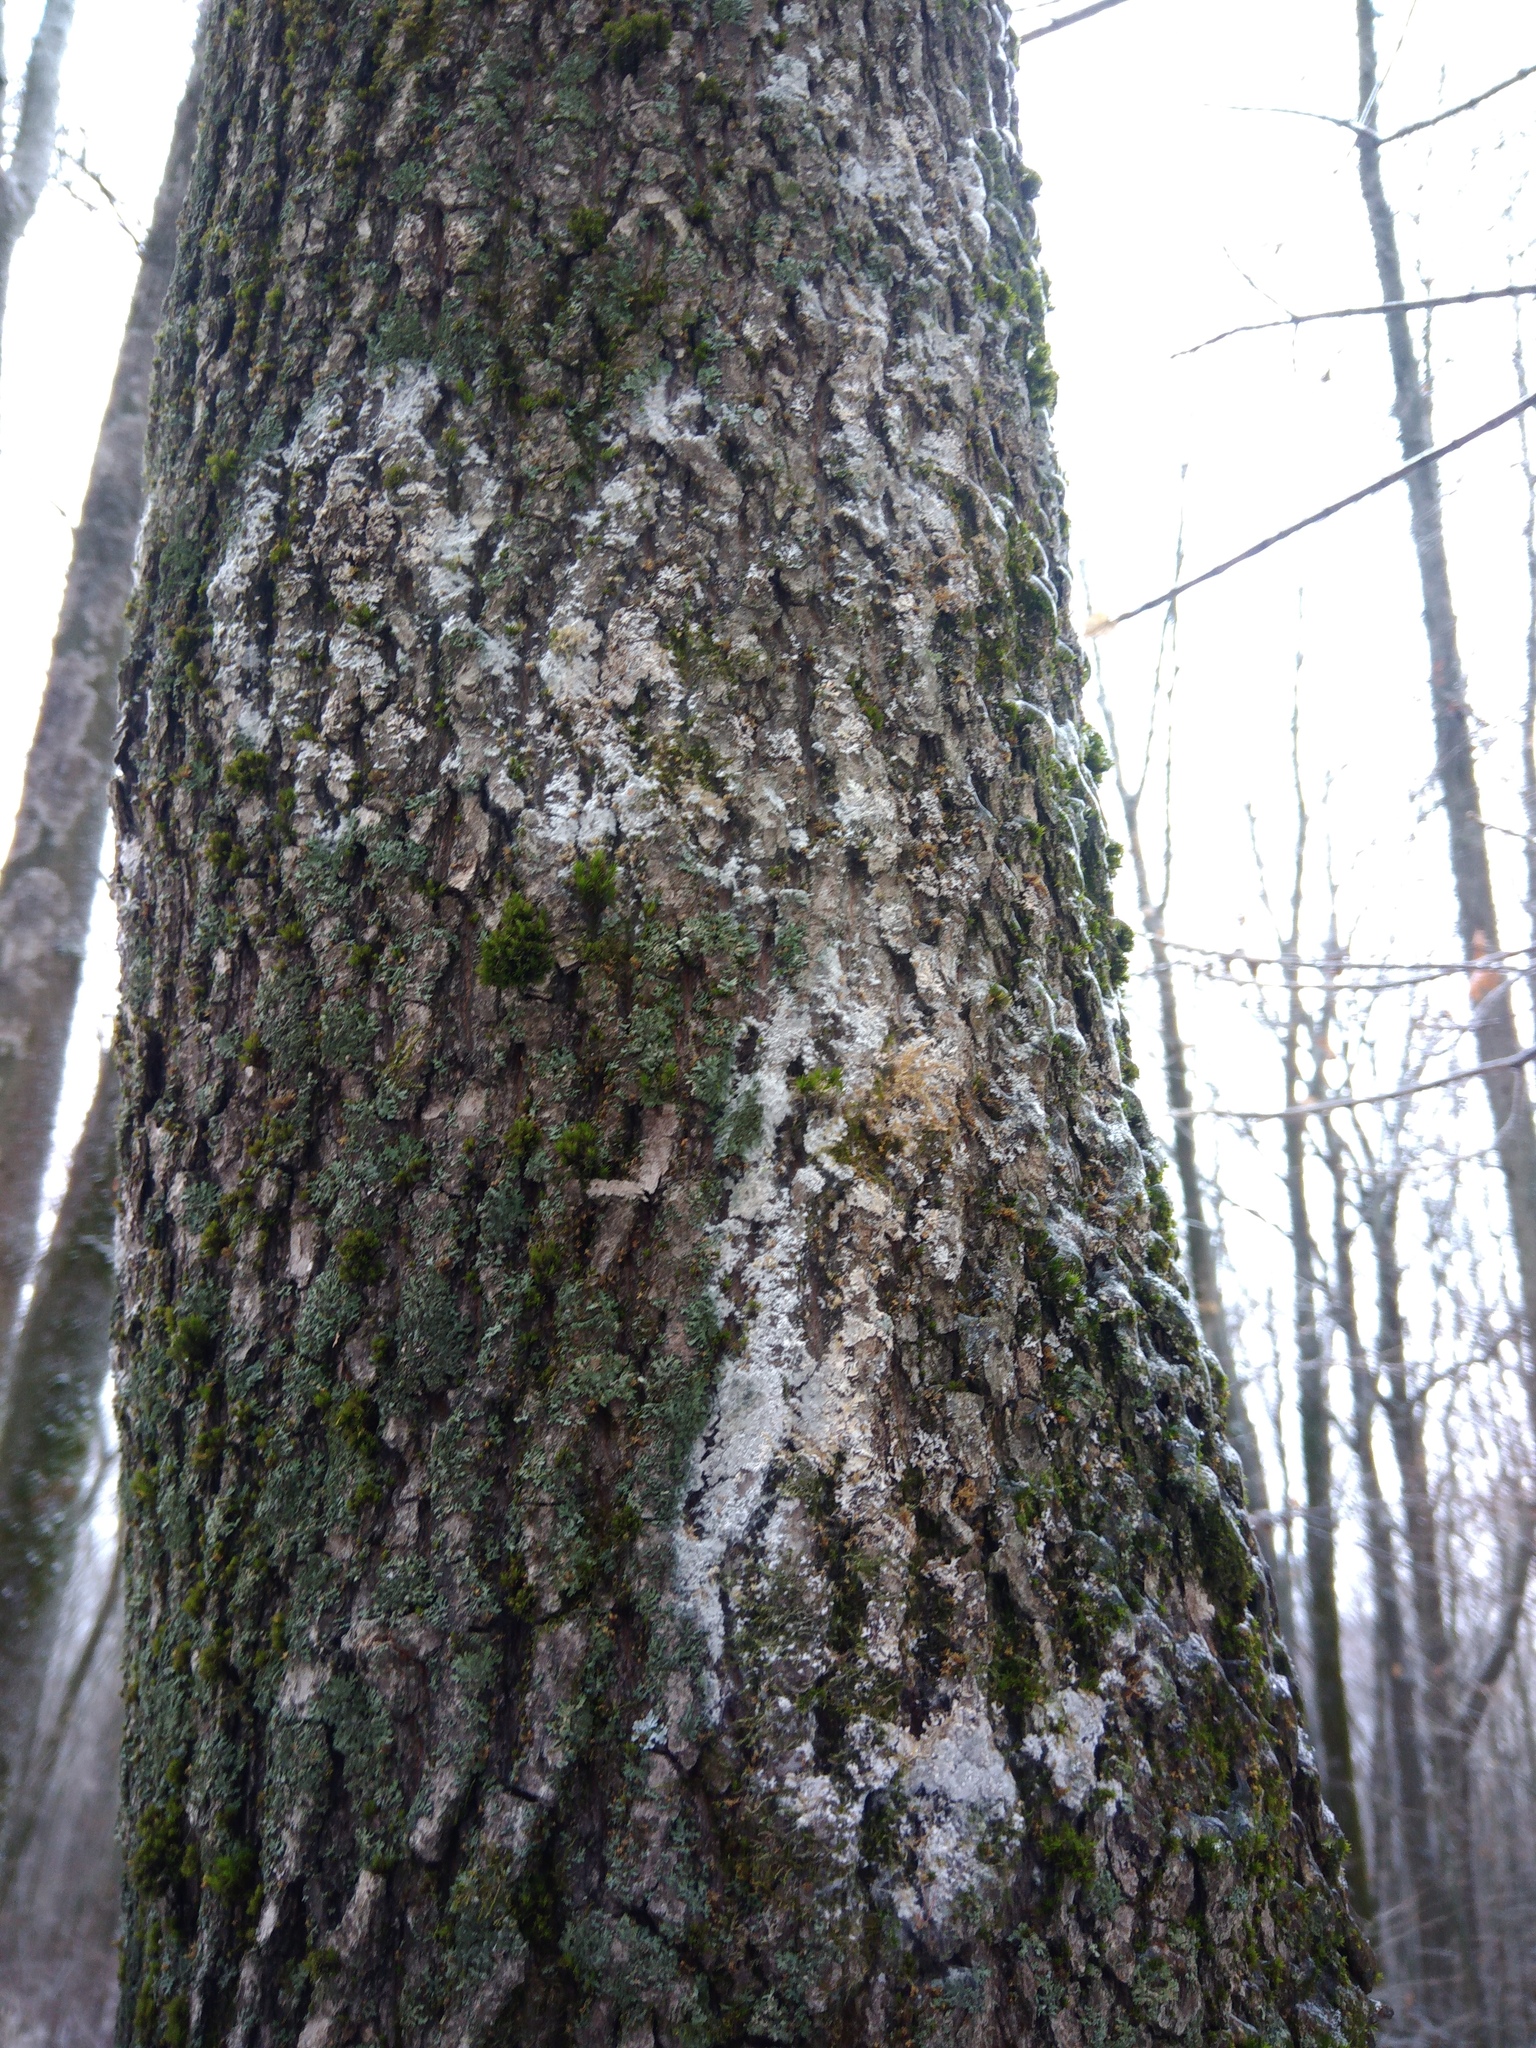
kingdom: Fungi
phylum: Basidiomycota
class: Agaricomycetes
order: Atheliales
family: Atheliaceae
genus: Athelia
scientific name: Athelia arachnoidea
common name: Candelabra duster
